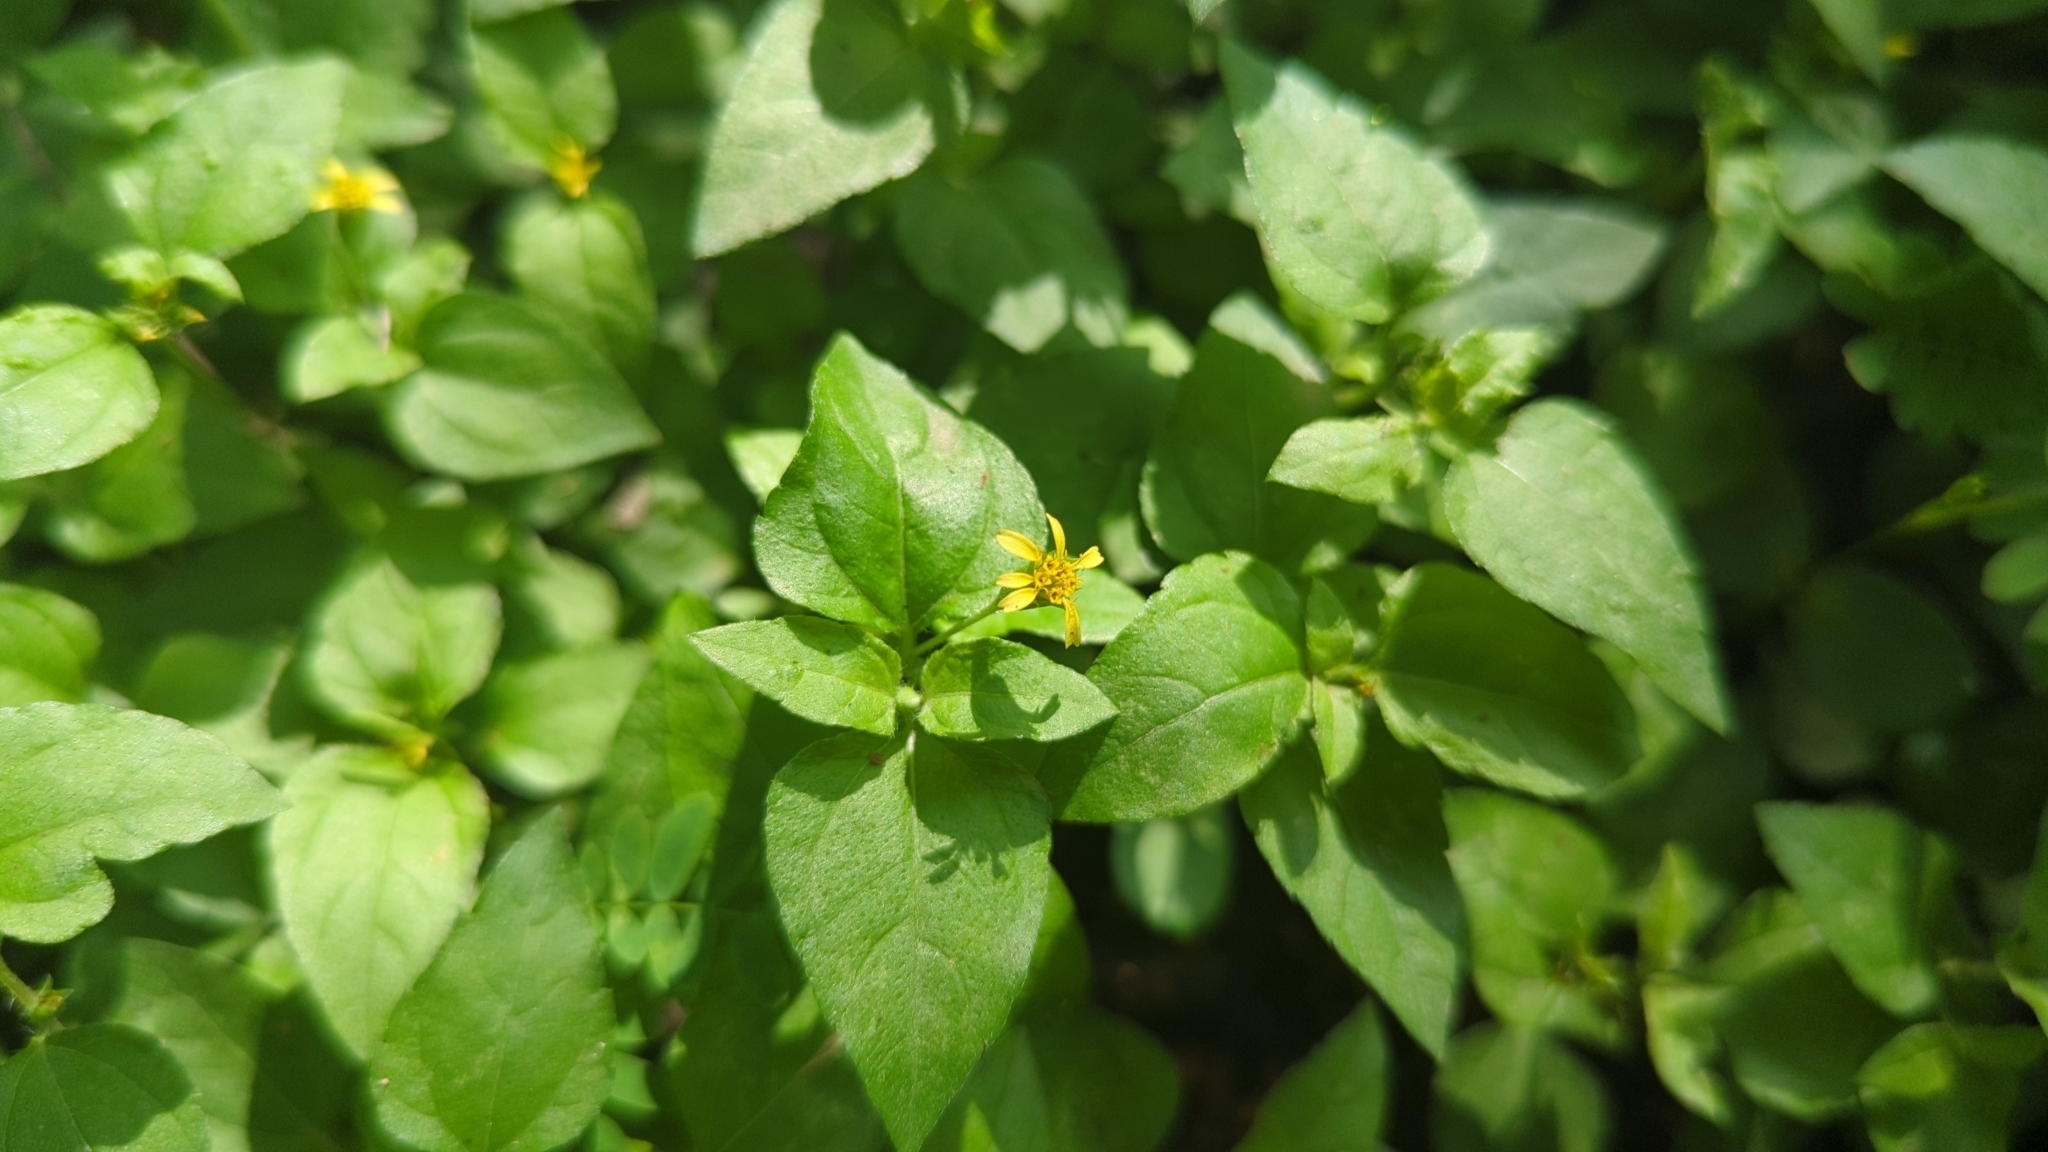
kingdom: Plantae
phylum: Tracheophyta
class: Magnoliopsida
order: Asterales
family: Asteraceae
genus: Synedrella
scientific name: Synedrella nodiflora
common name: Nodeweed
